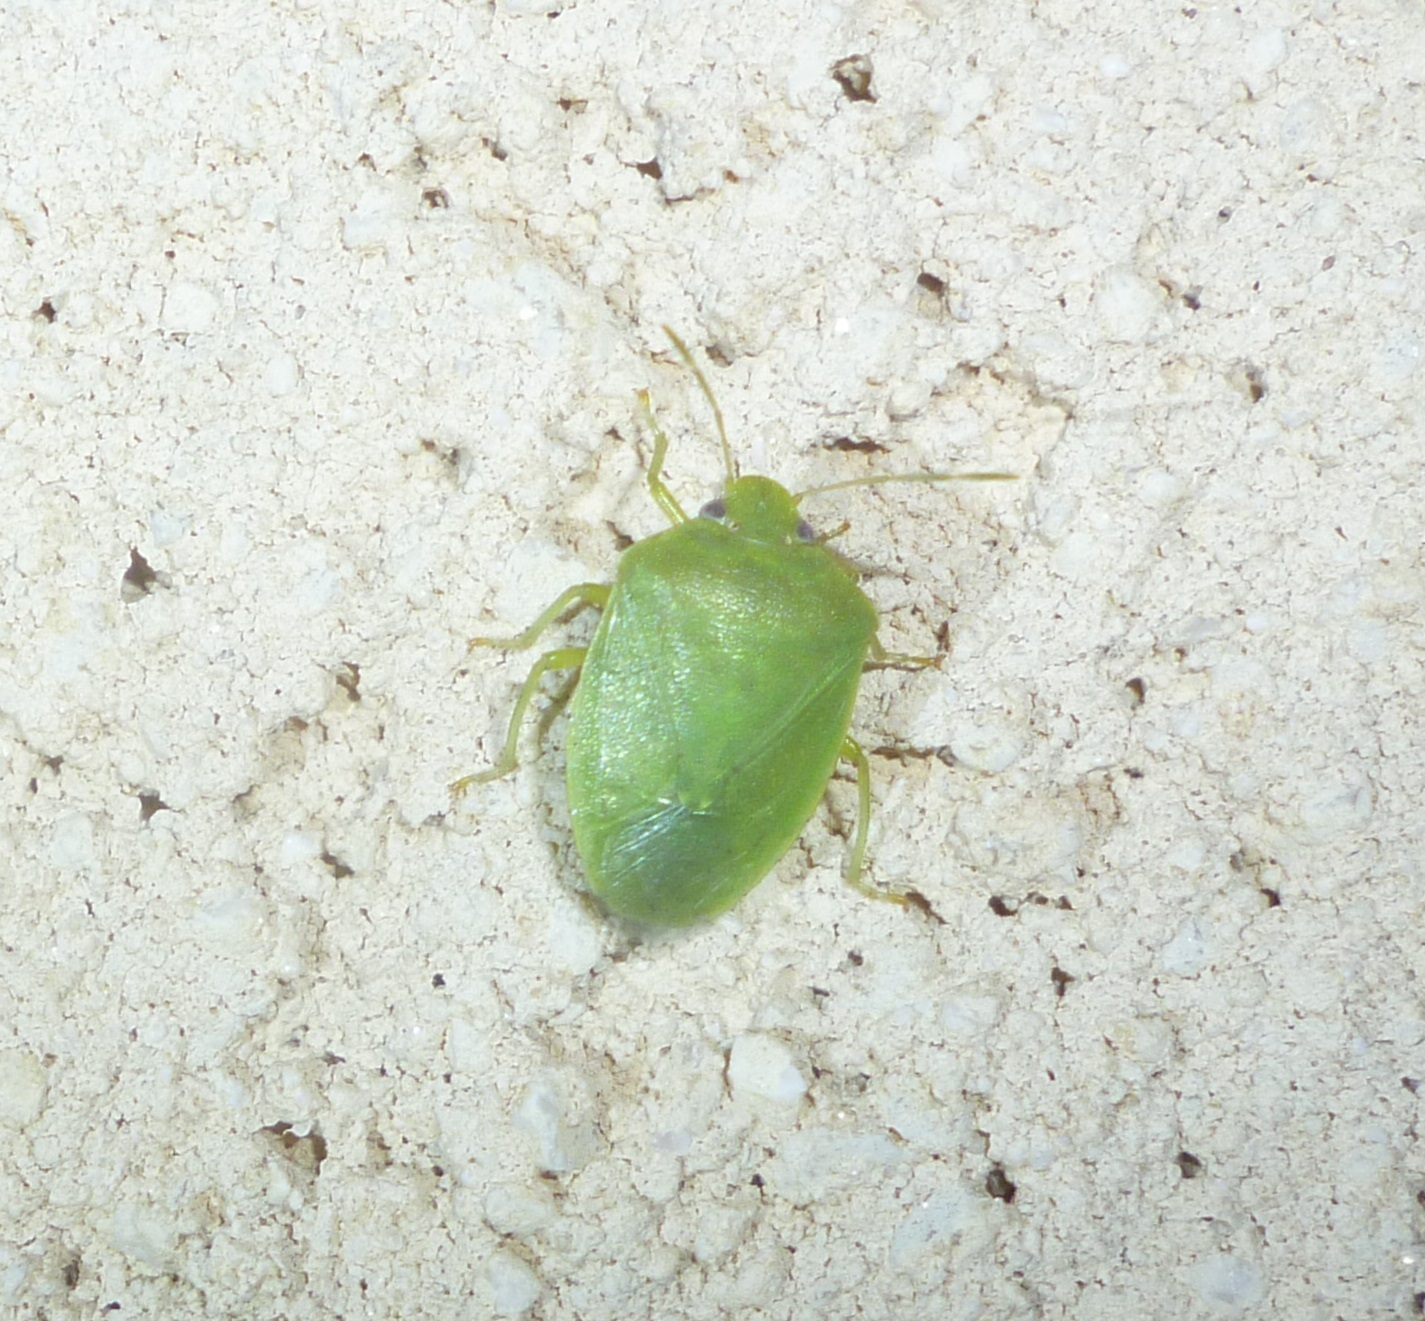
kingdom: Animalia
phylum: Arthropoda
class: Insecta
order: Hemiptera
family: Pentatomidae
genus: Acrosternum
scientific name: Acrosternum millierei
